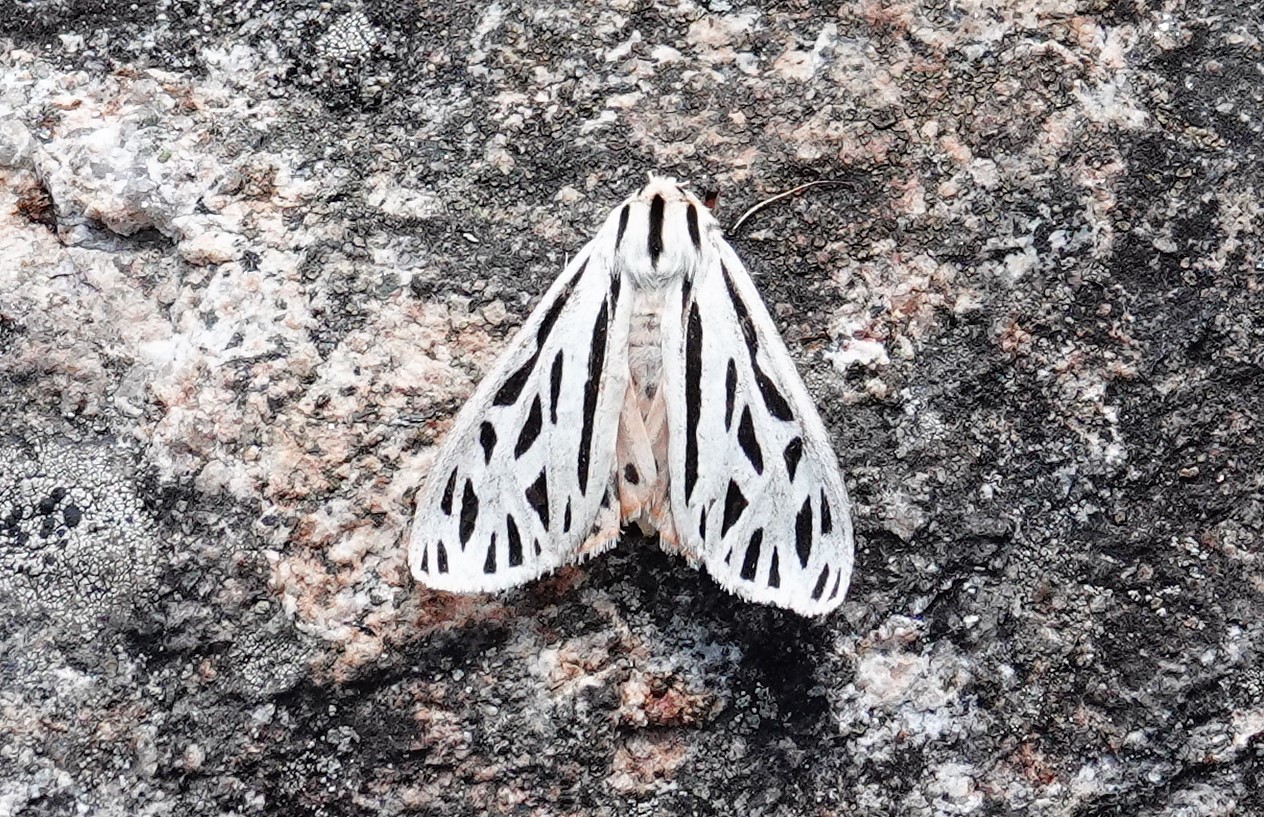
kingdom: Animalia
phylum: Arthropoda
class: Insecta
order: Lepidoptera
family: Erebidae
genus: Apantesis
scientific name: Apantesis arge
